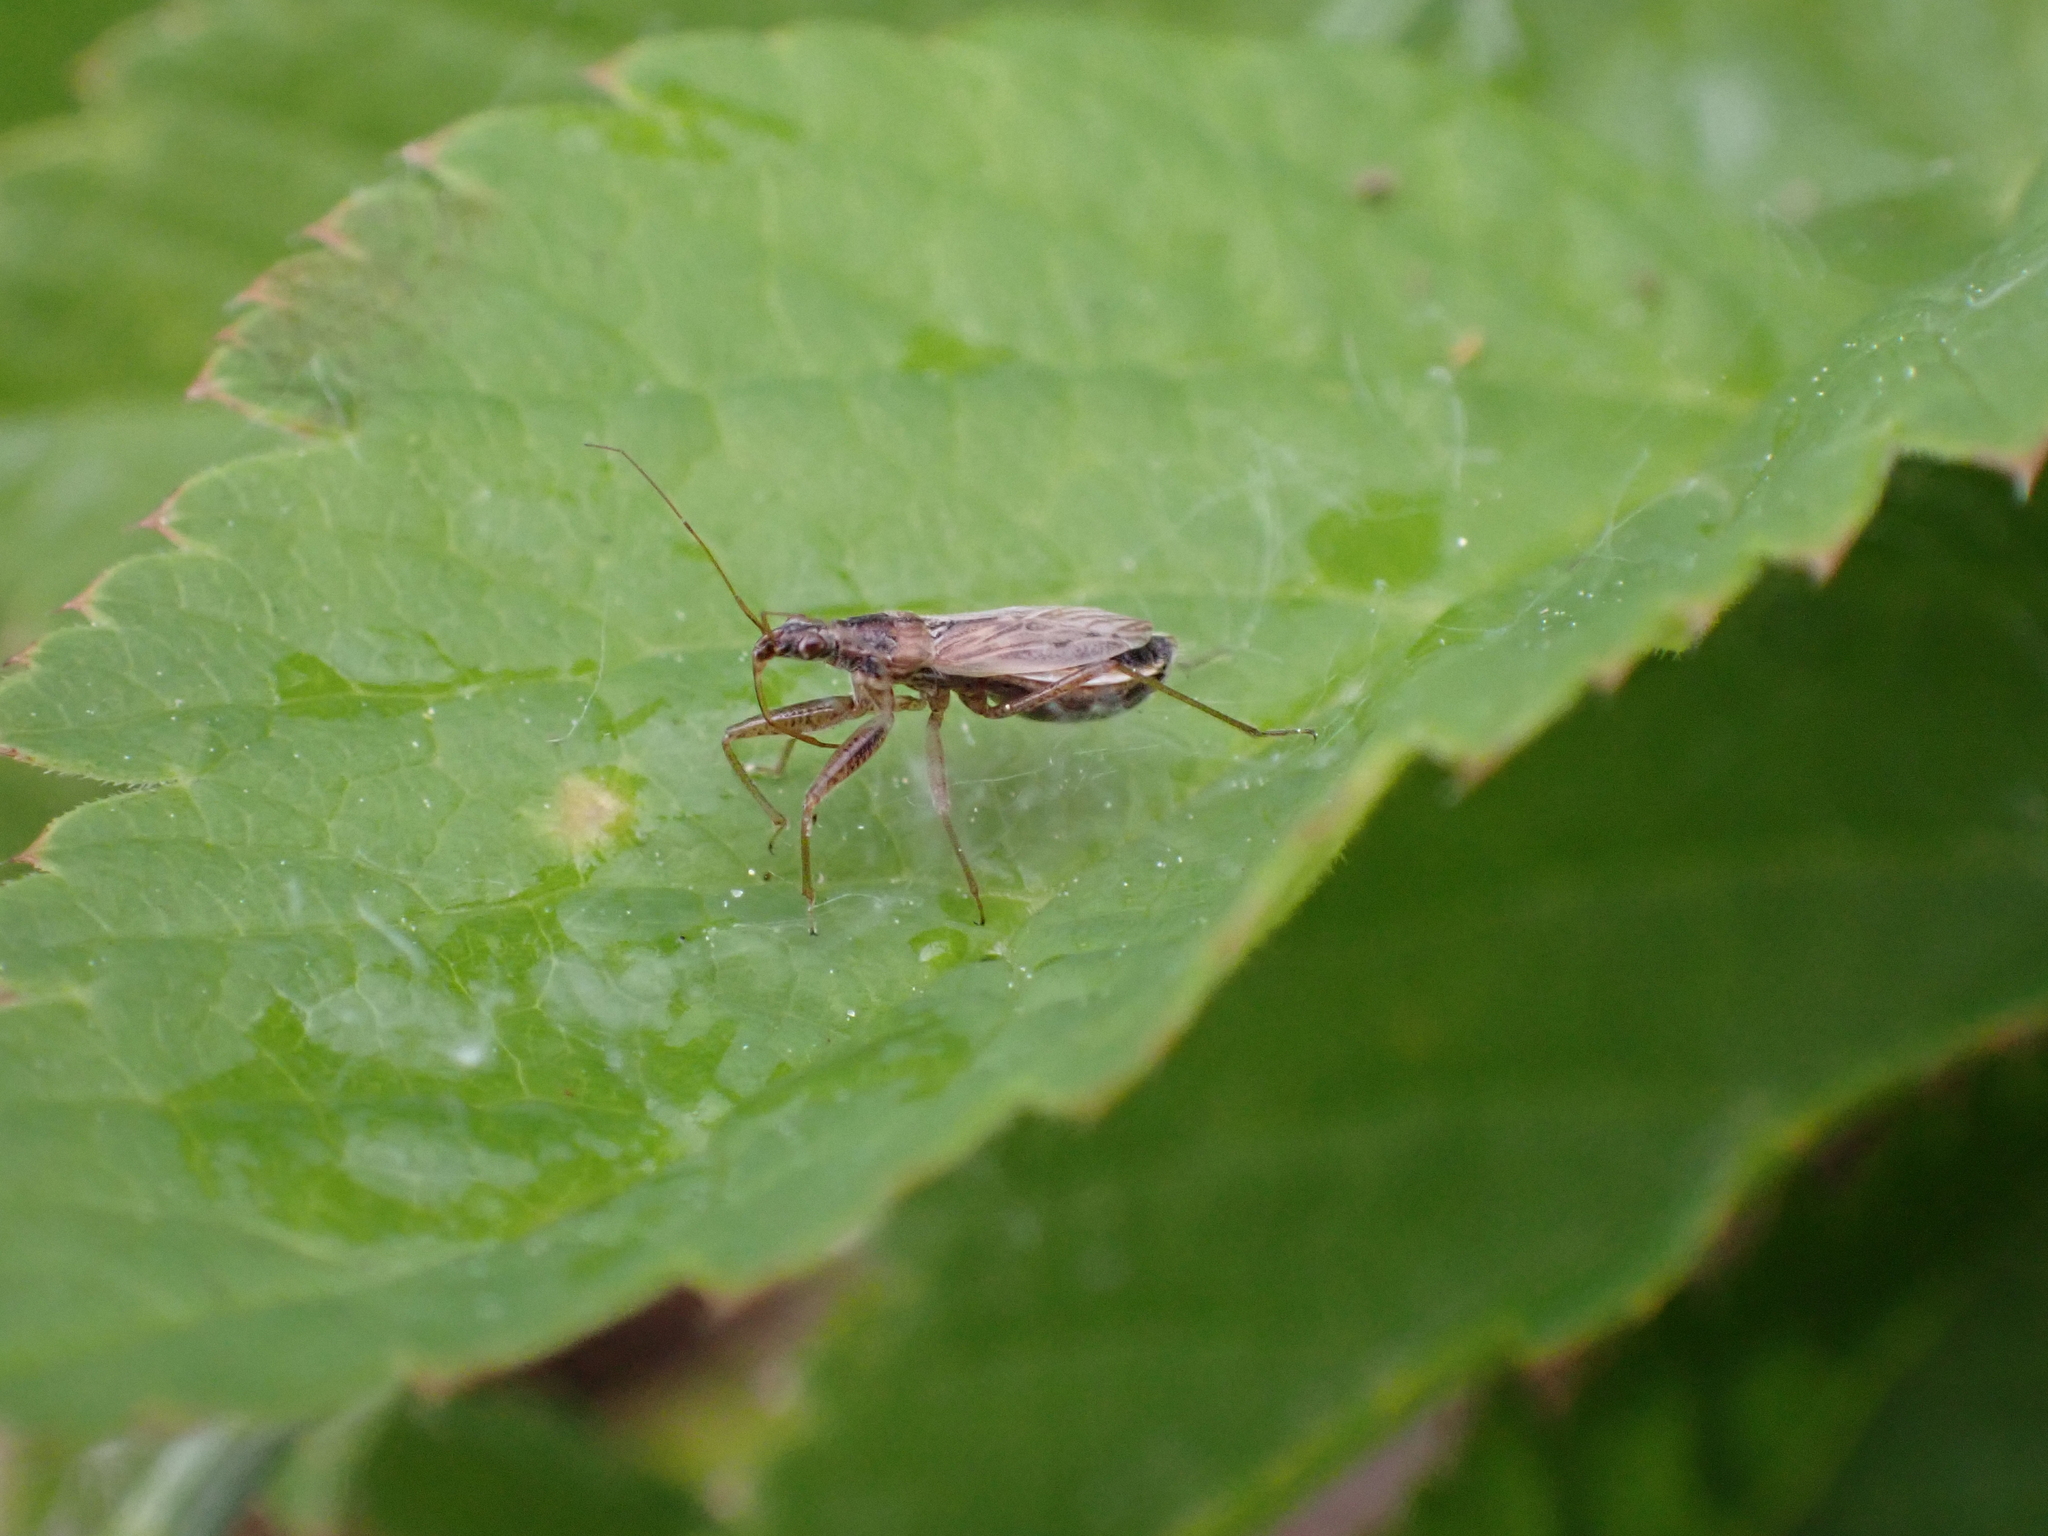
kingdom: Animalia
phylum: Arthropoda
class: Insecta
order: Hemiptera
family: Nabidae
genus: Nabis
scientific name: Nabis
